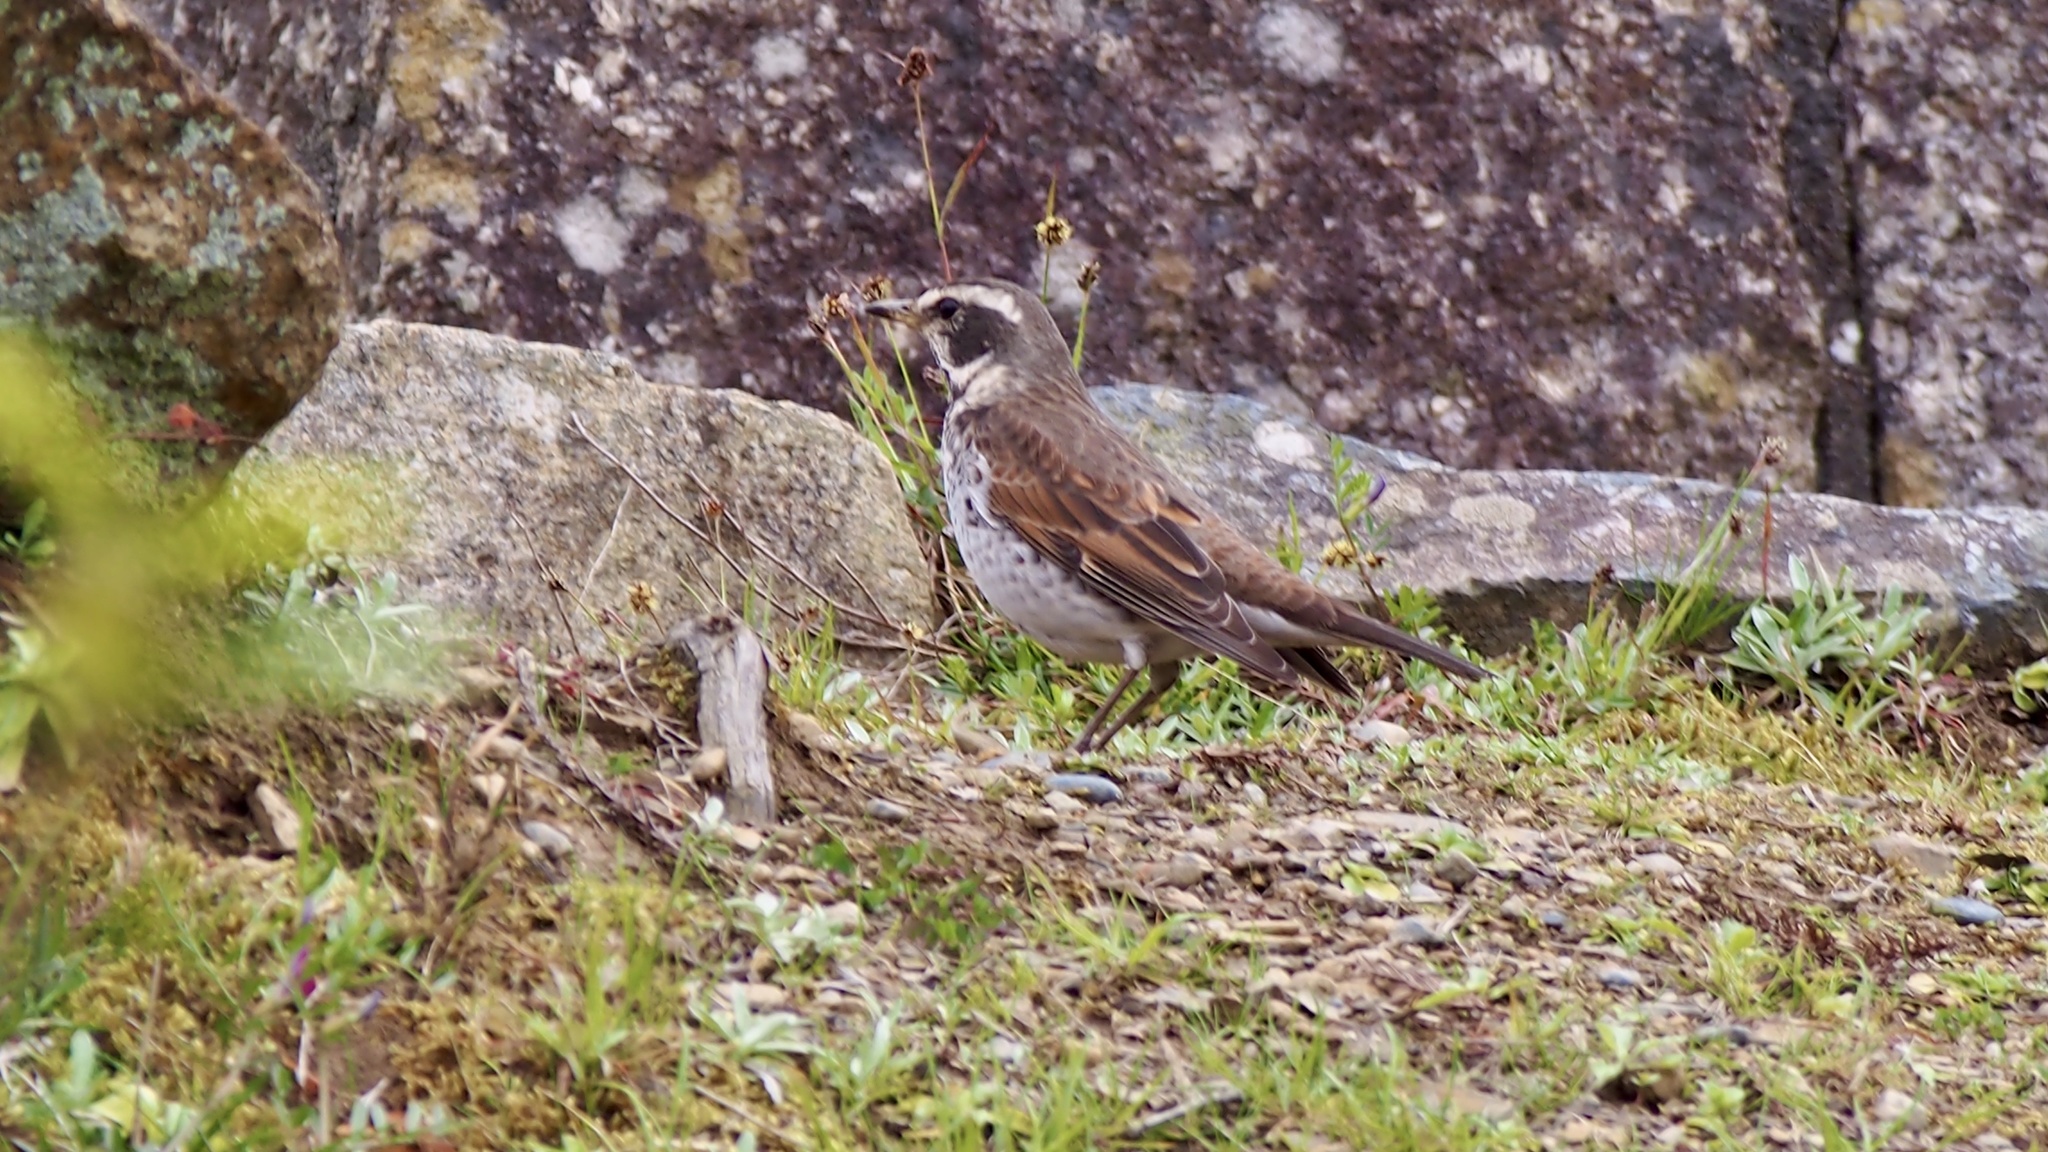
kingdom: Animalia
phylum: Chordata
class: Aves
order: Passeriformes
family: Turdidae
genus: Turdus
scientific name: Turdus eunomus
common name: Dusky thrush
